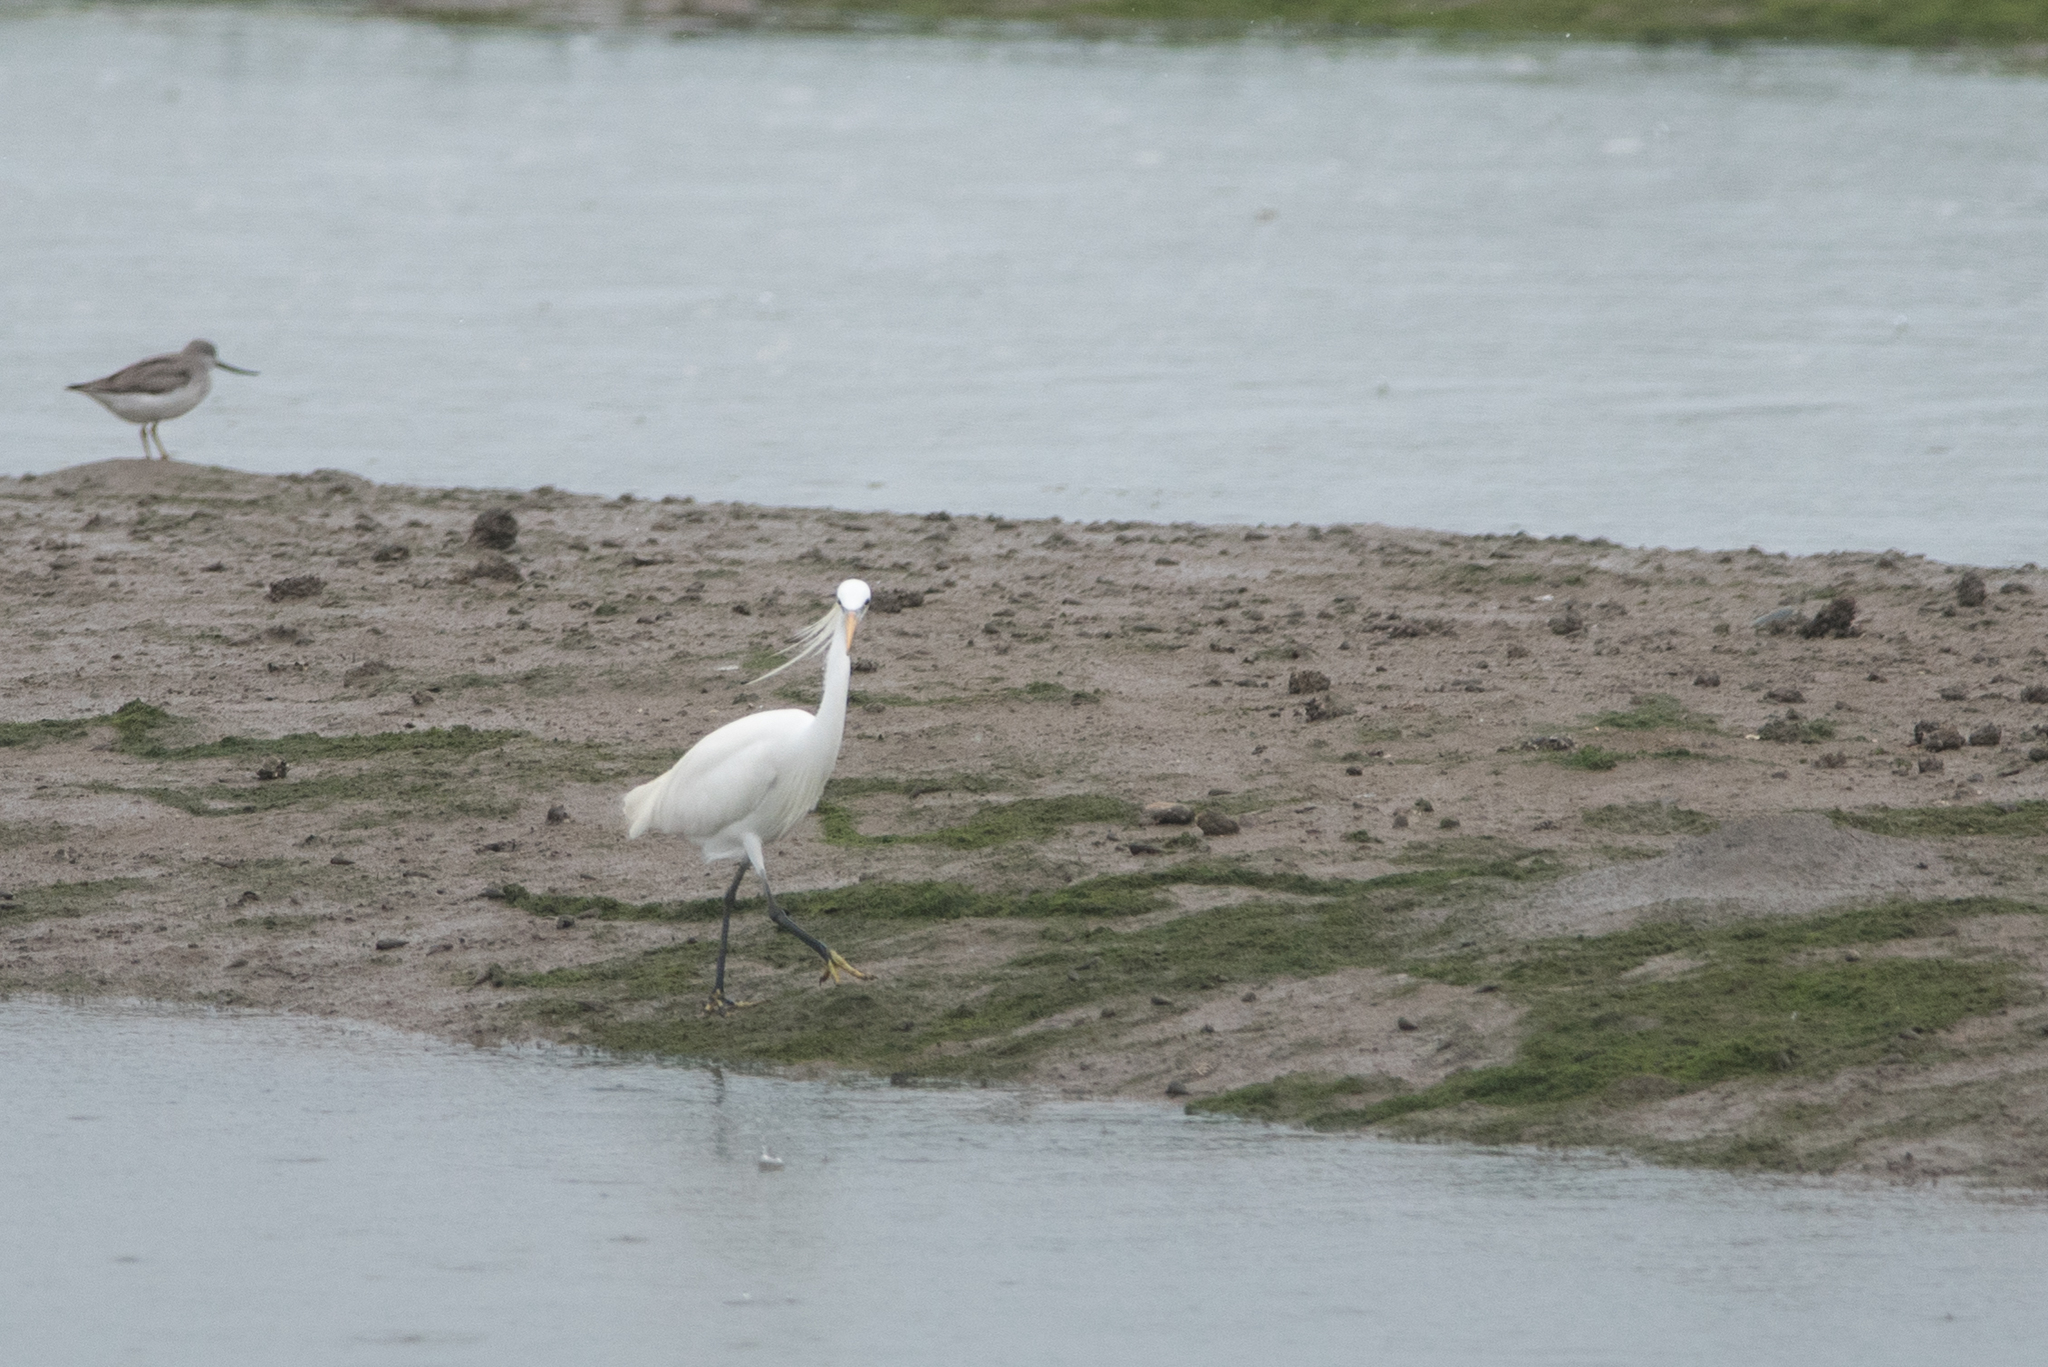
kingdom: Animalia
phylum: Chordata
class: Aves
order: Pelecaniformes
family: Ardeidae
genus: Egretta
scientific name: Egretta eulophotes
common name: Chinese egret
